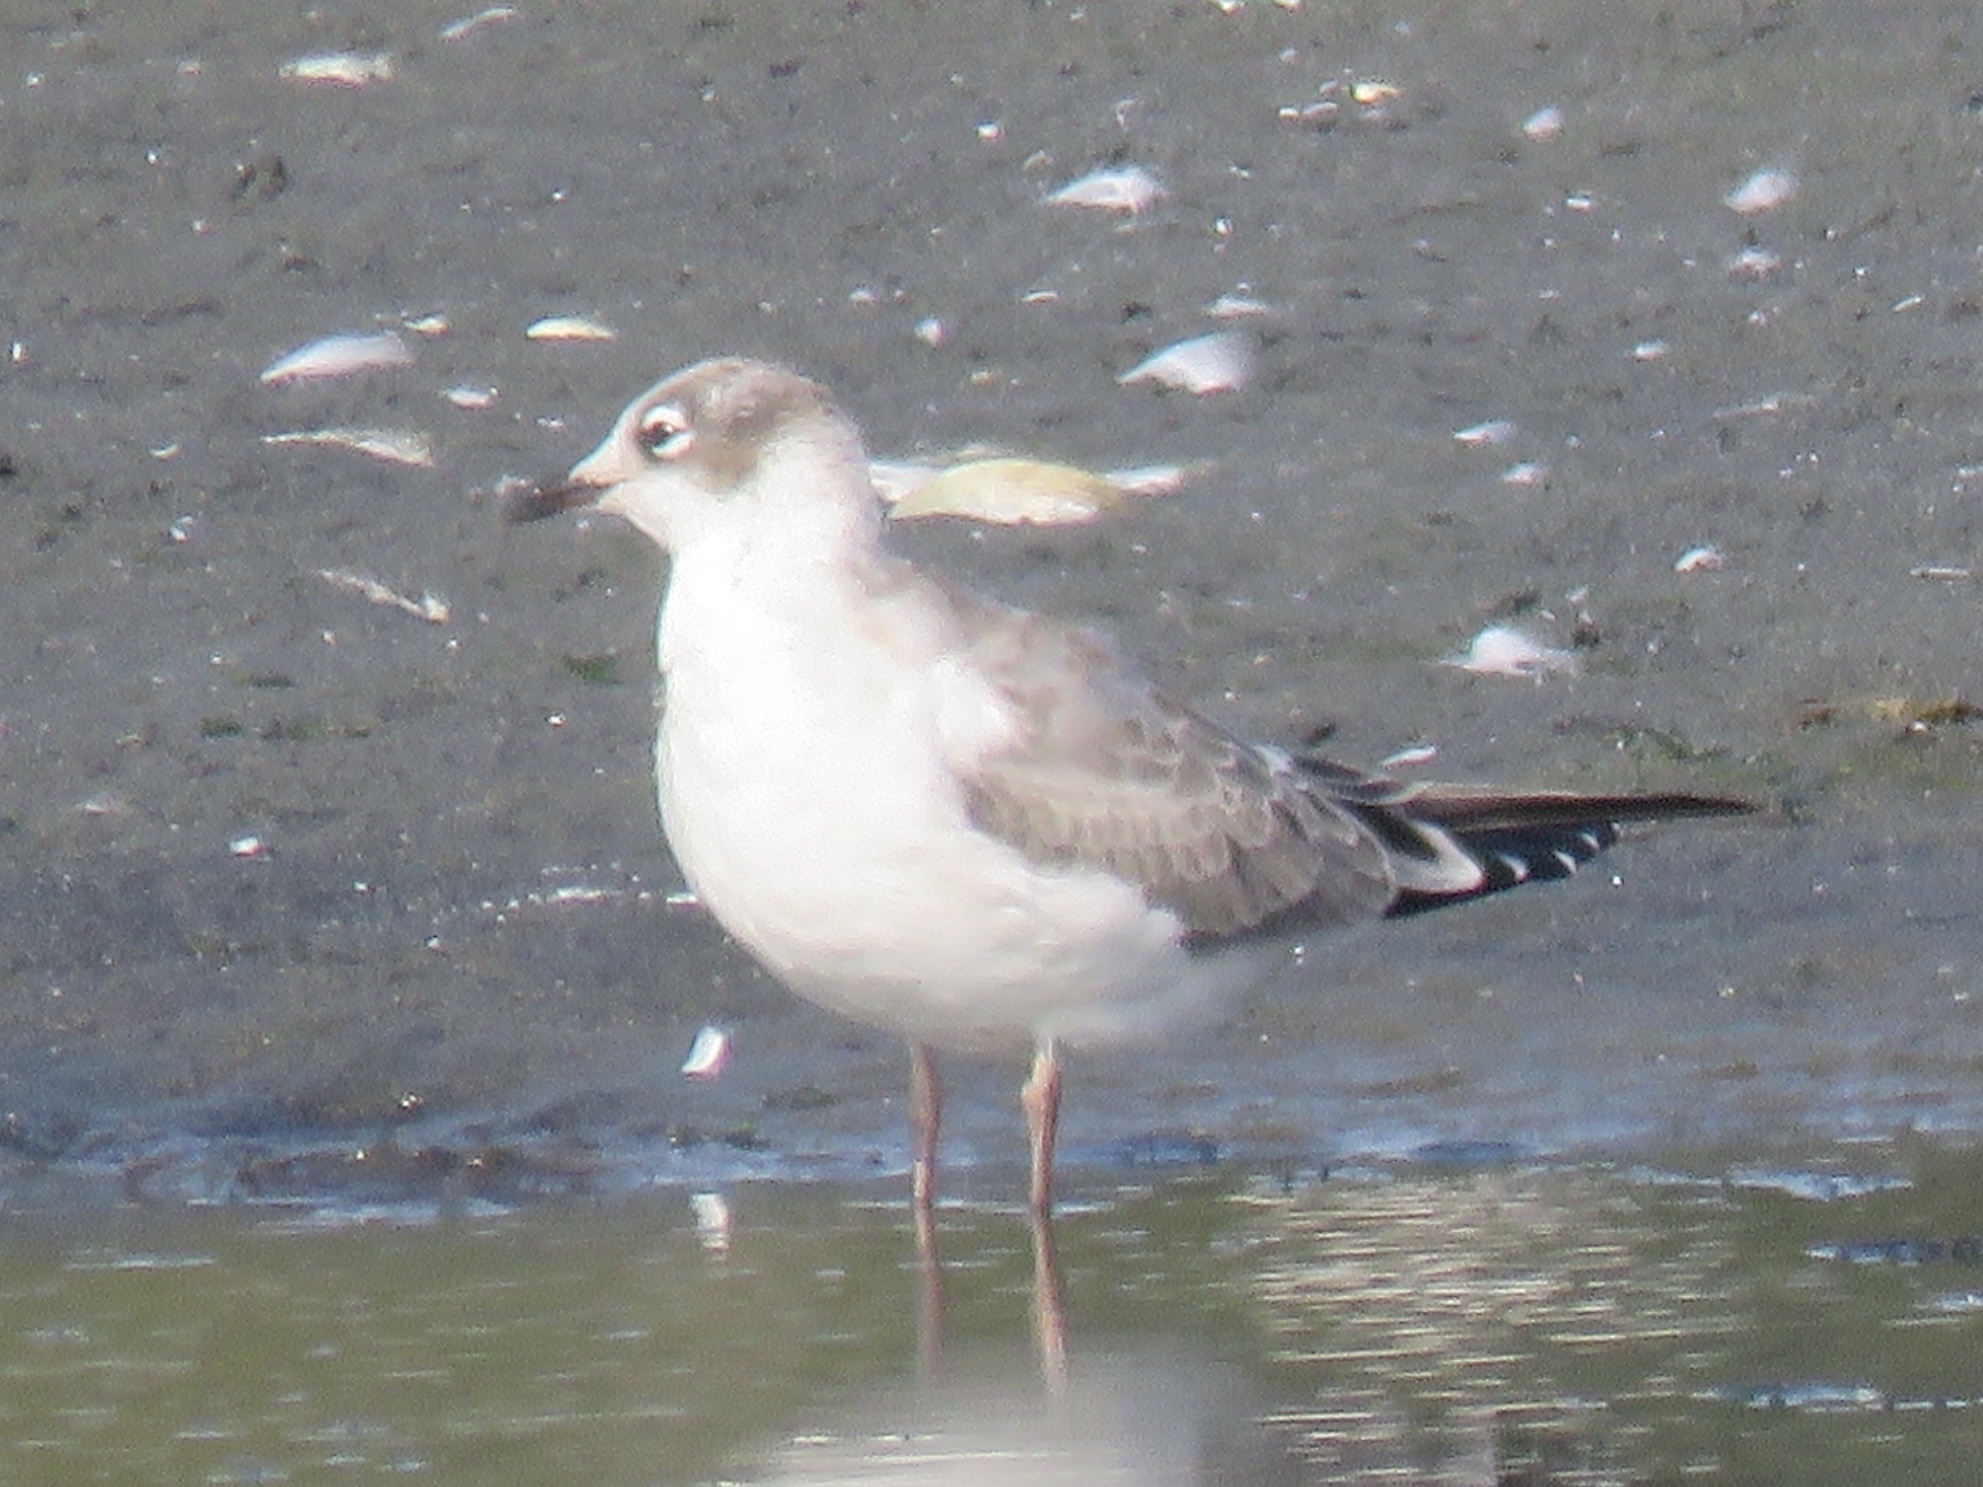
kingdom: Animalia
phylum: Chordata
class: Aves
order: Charadriiformes
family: Laridae
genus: Leucophaeus
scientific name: Leucophaeus pipixcan
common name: Franklin's gull
